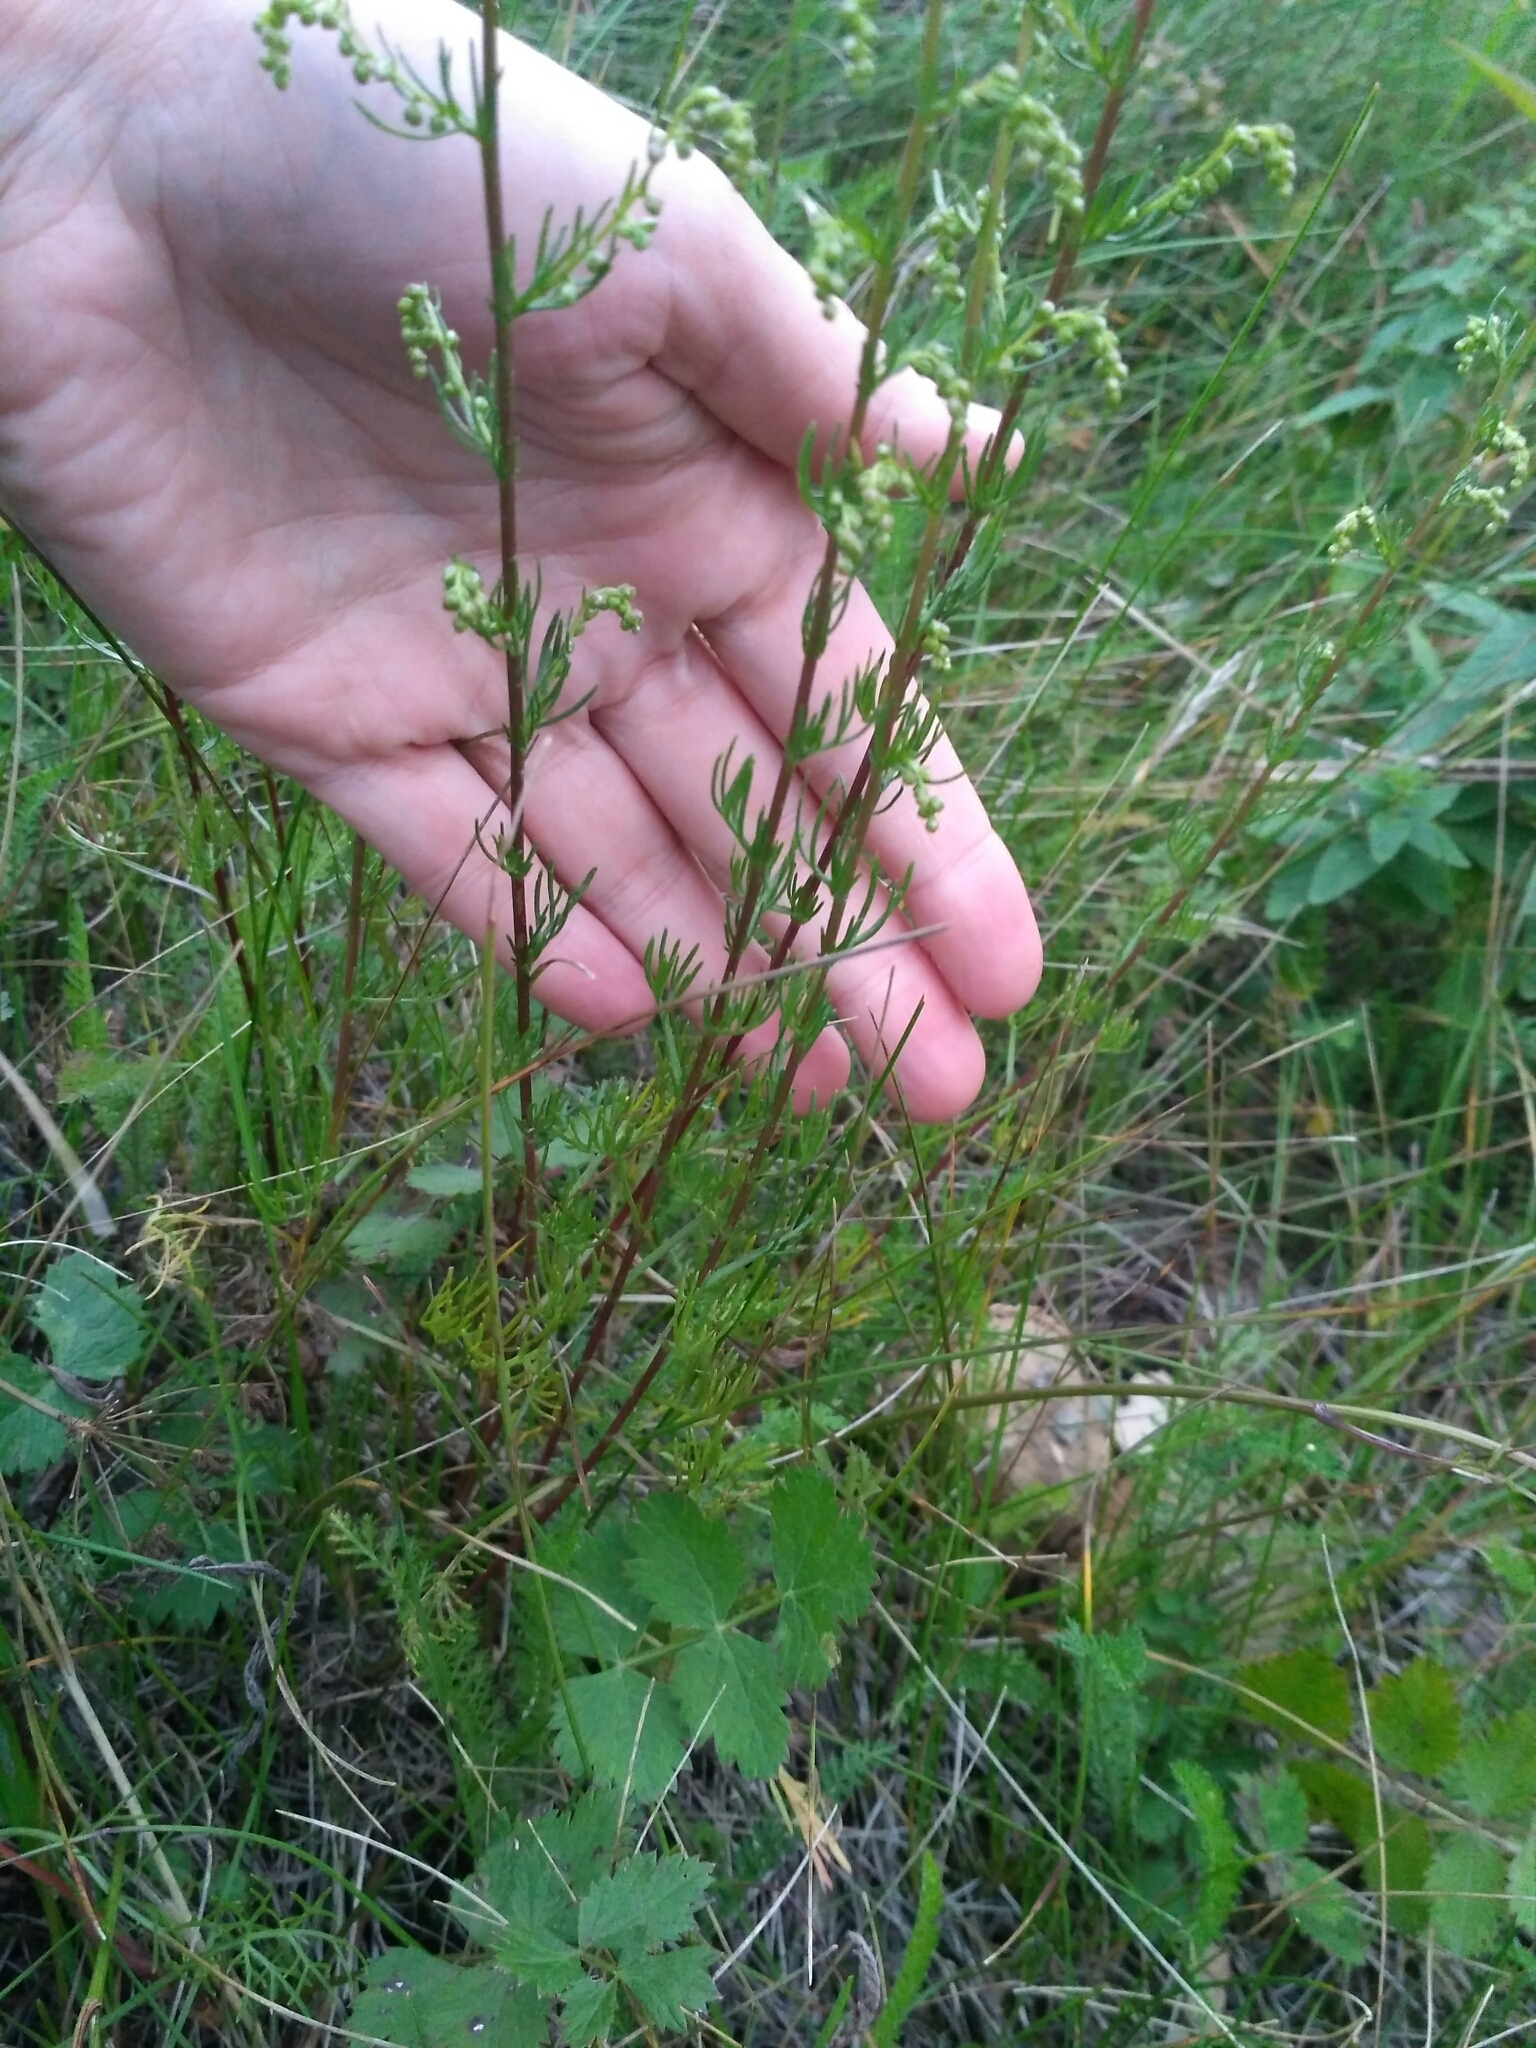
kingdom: Plantae
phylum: Tracheophyta
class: Magnoliopsida
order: Asterales
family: Asteraceae
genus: Artemisia
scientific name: Artemisia campestris
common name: Field wormwood
